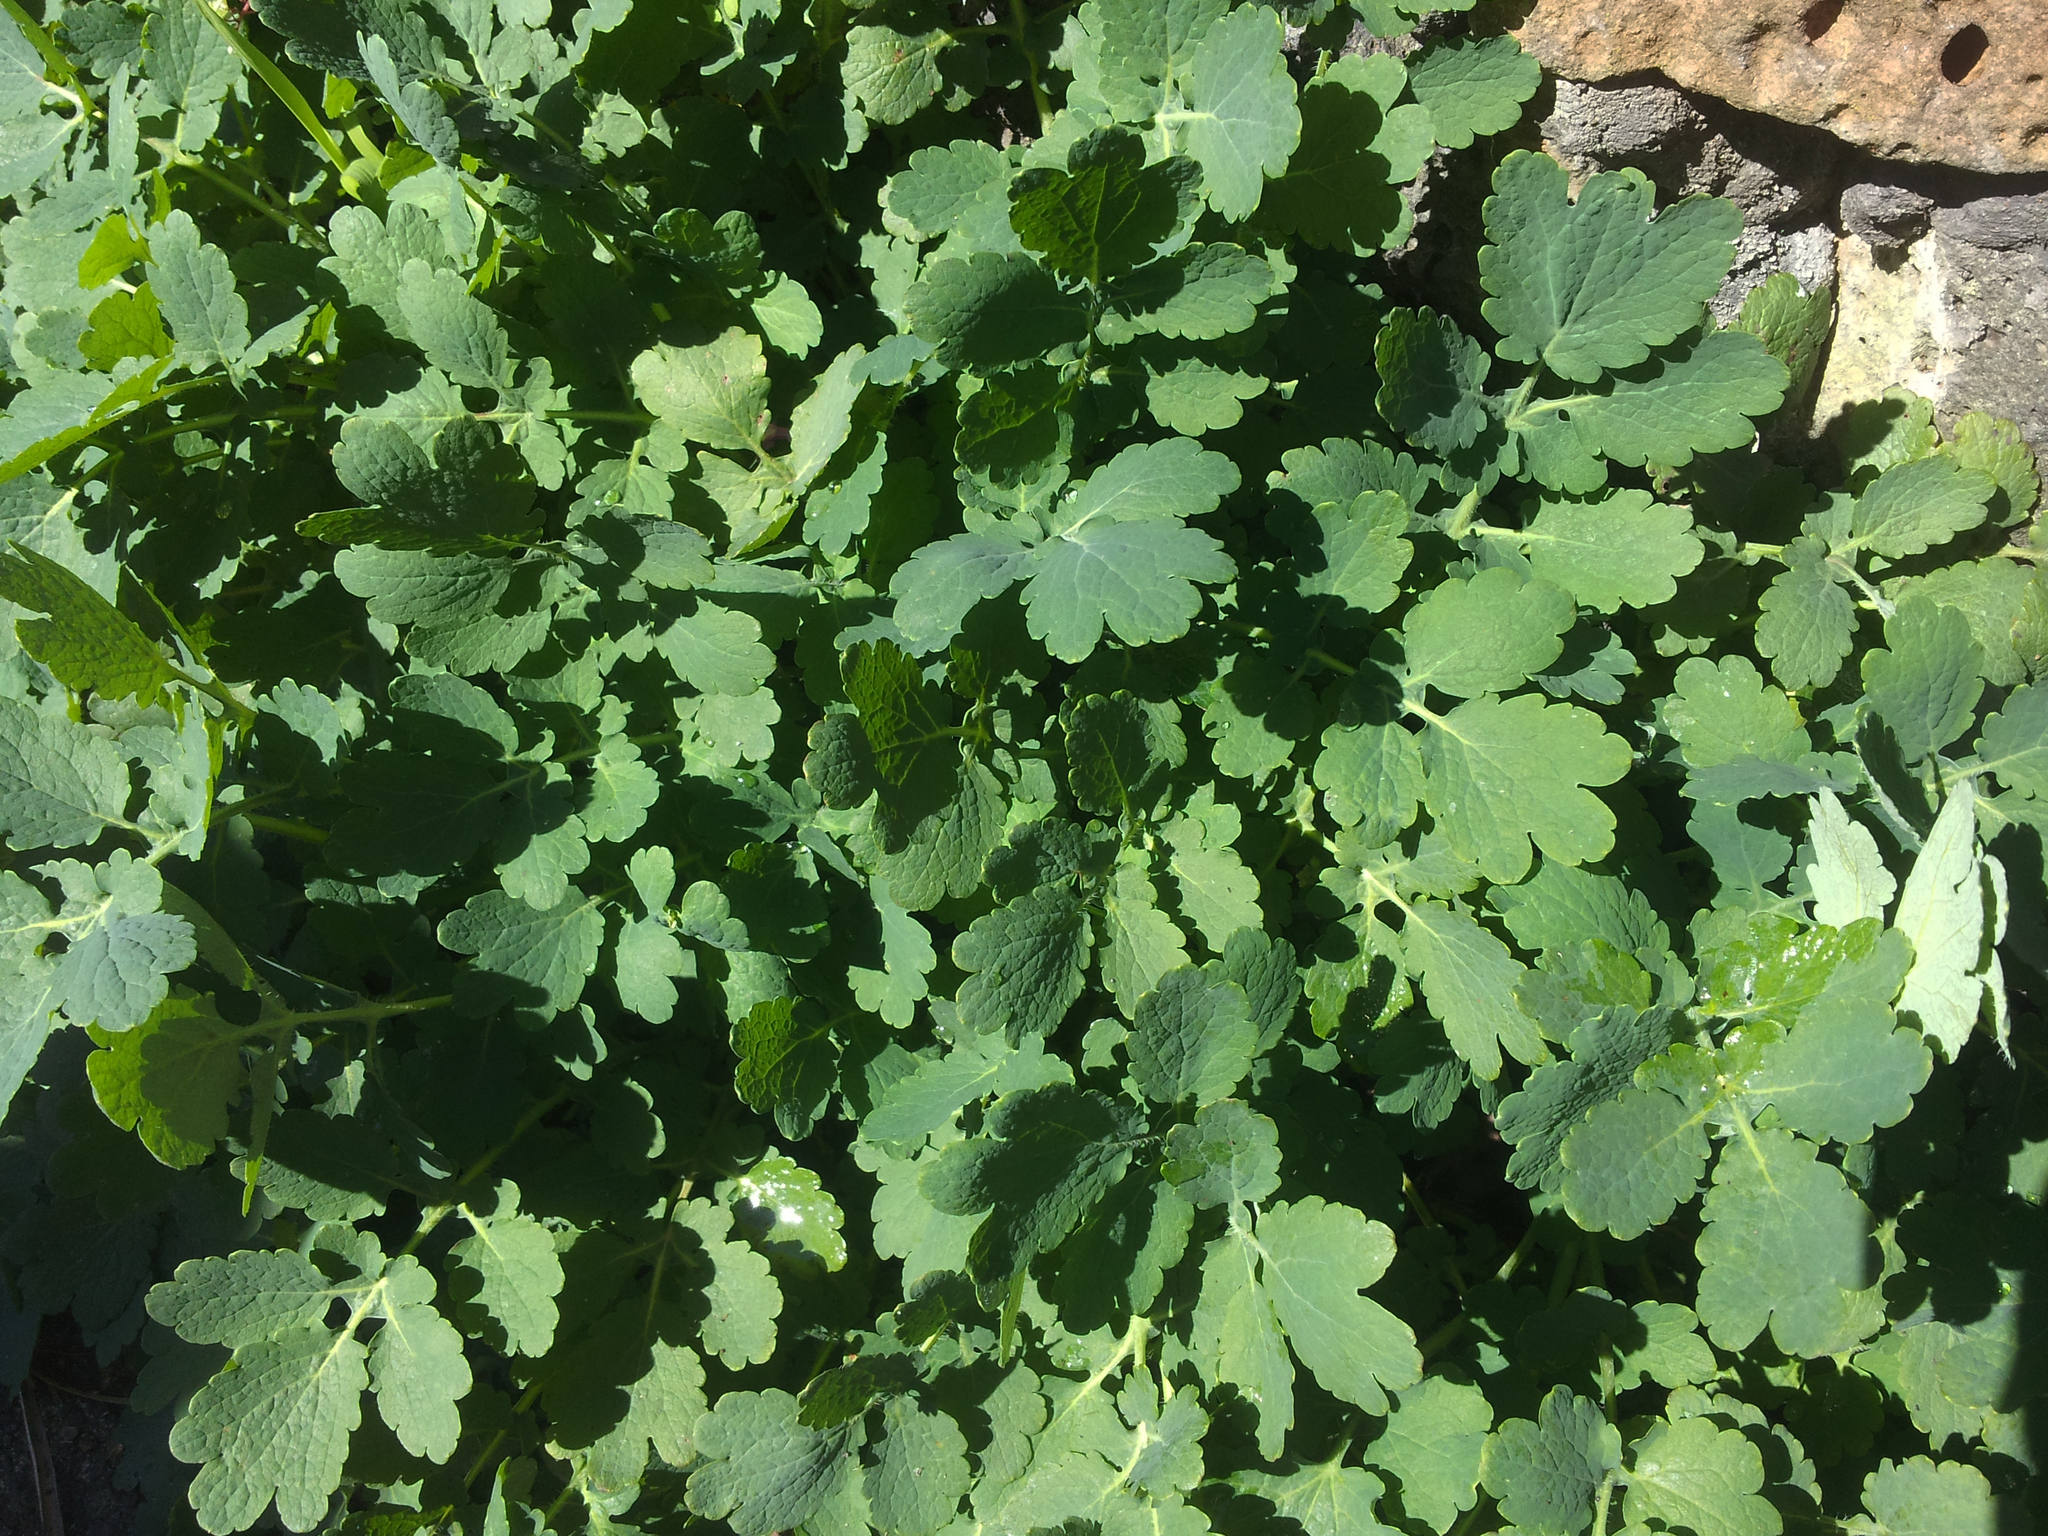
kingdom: Plantae
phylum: Tracheophyta
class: Magnoliopsida
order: Ranunculales
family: Papaveraceae
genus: Chelidonium
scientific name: Chelidonium majus
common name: Greater celandine
